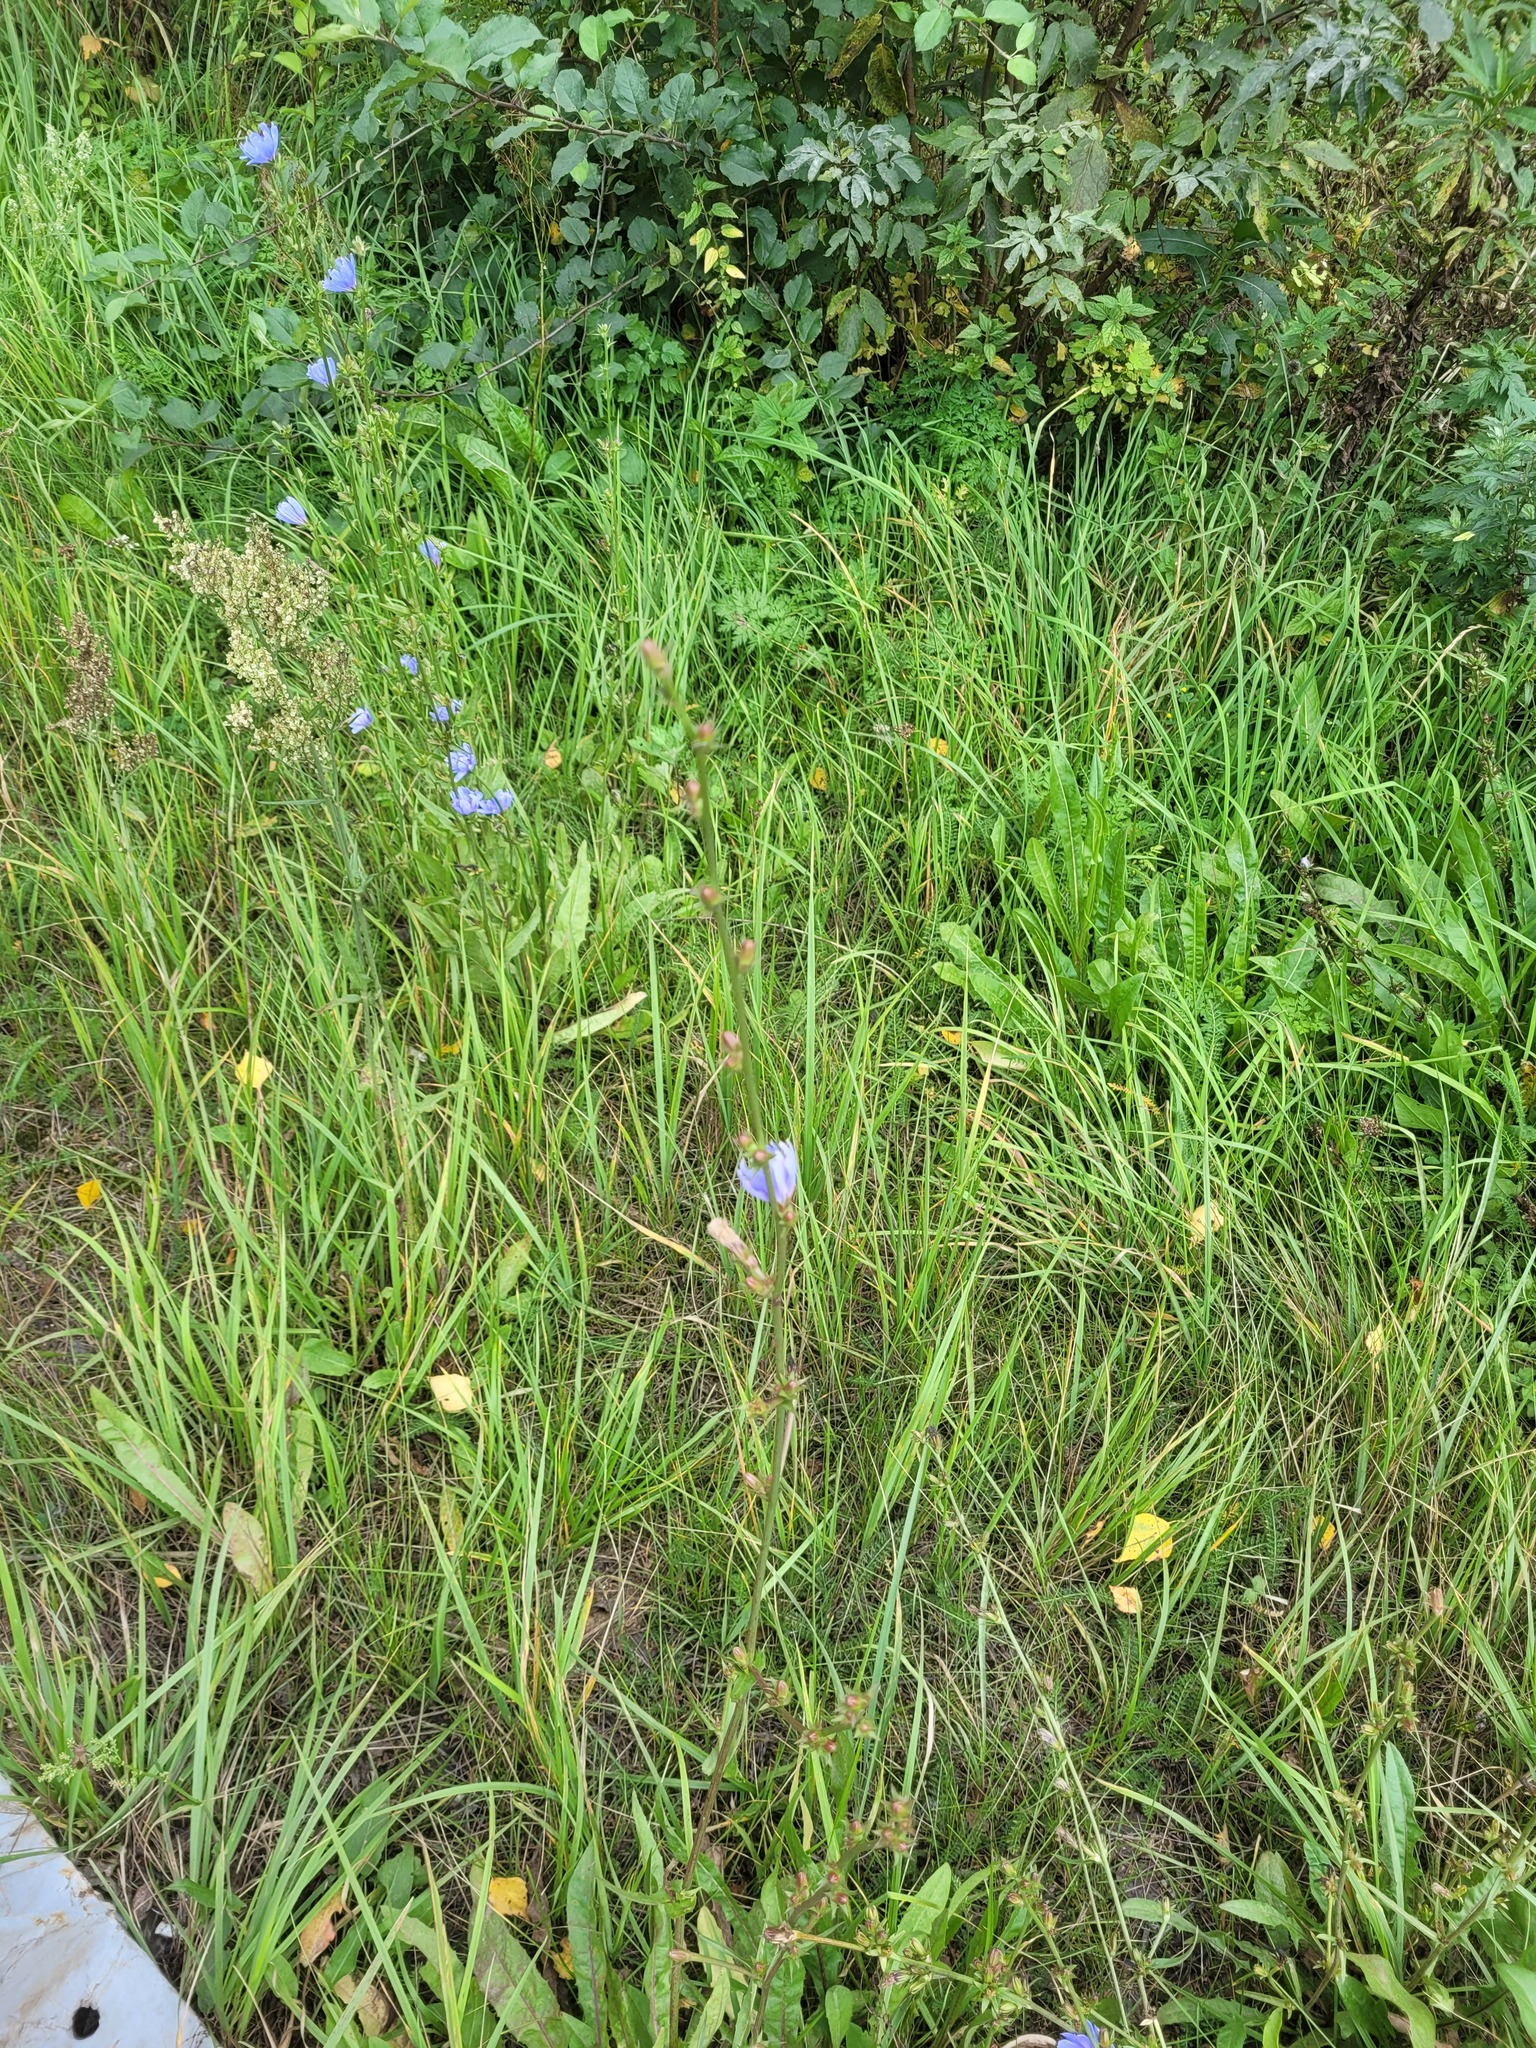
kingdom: Plantae
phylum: Tracheophyta
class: Magnoliopsida
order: Asterales
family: Asteraceae
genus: Cichorium
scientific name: Cichorium intybus
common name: Chicory
